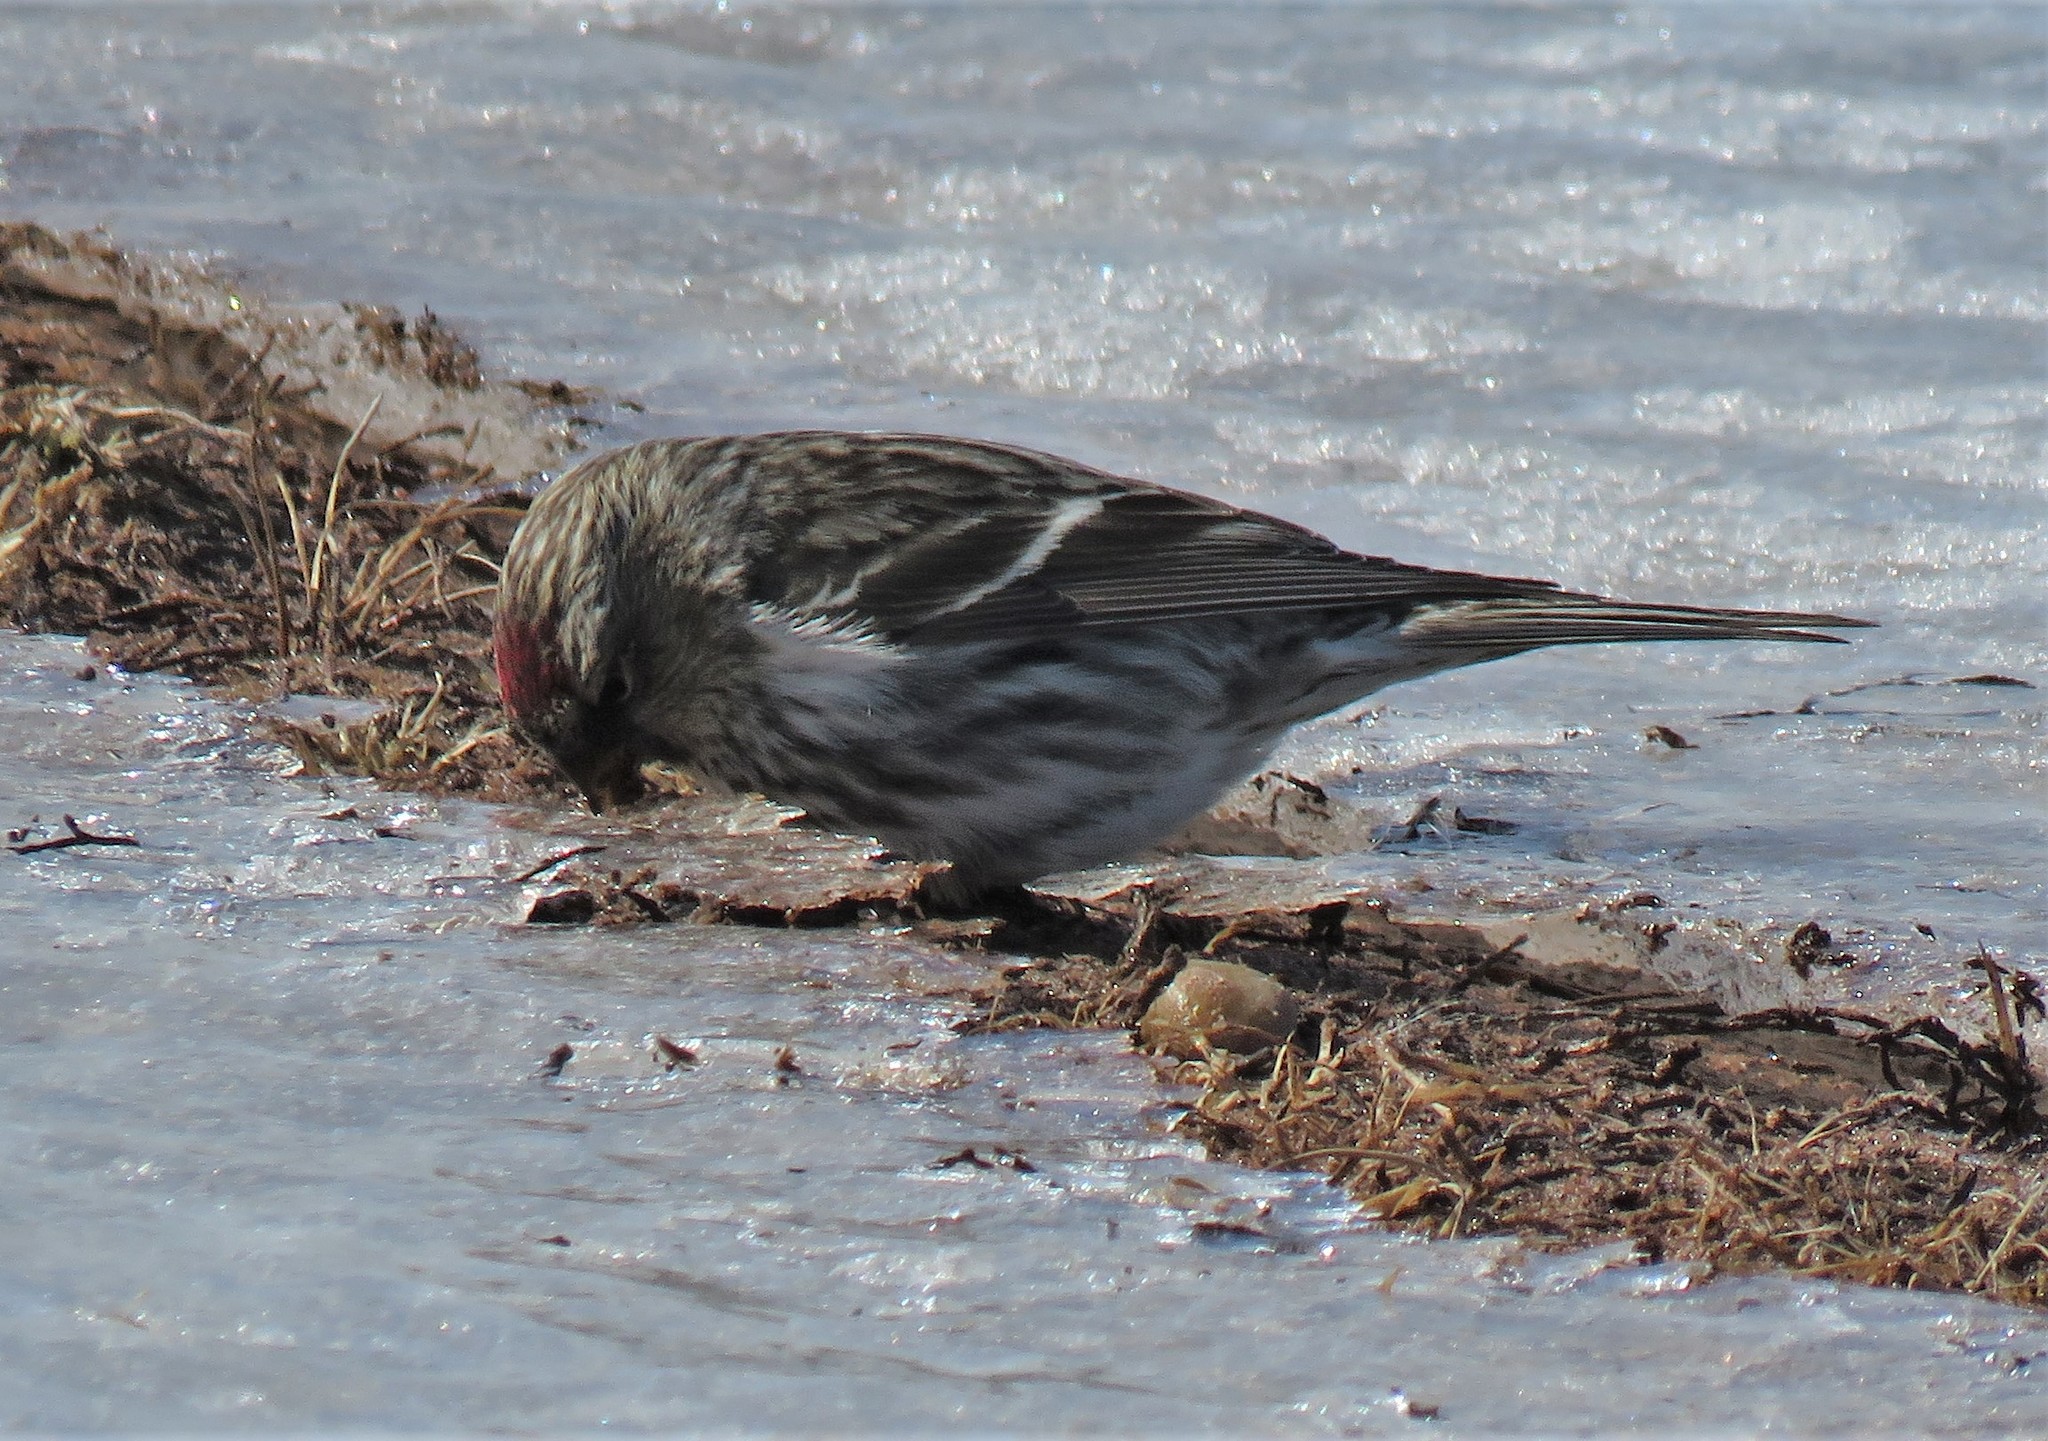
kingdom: Animalia
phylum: Chordata
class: Aves
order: Passeriformes
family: Fringillidae
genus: Acanthis
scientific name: Acanthis flammea
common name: Common redpoll
